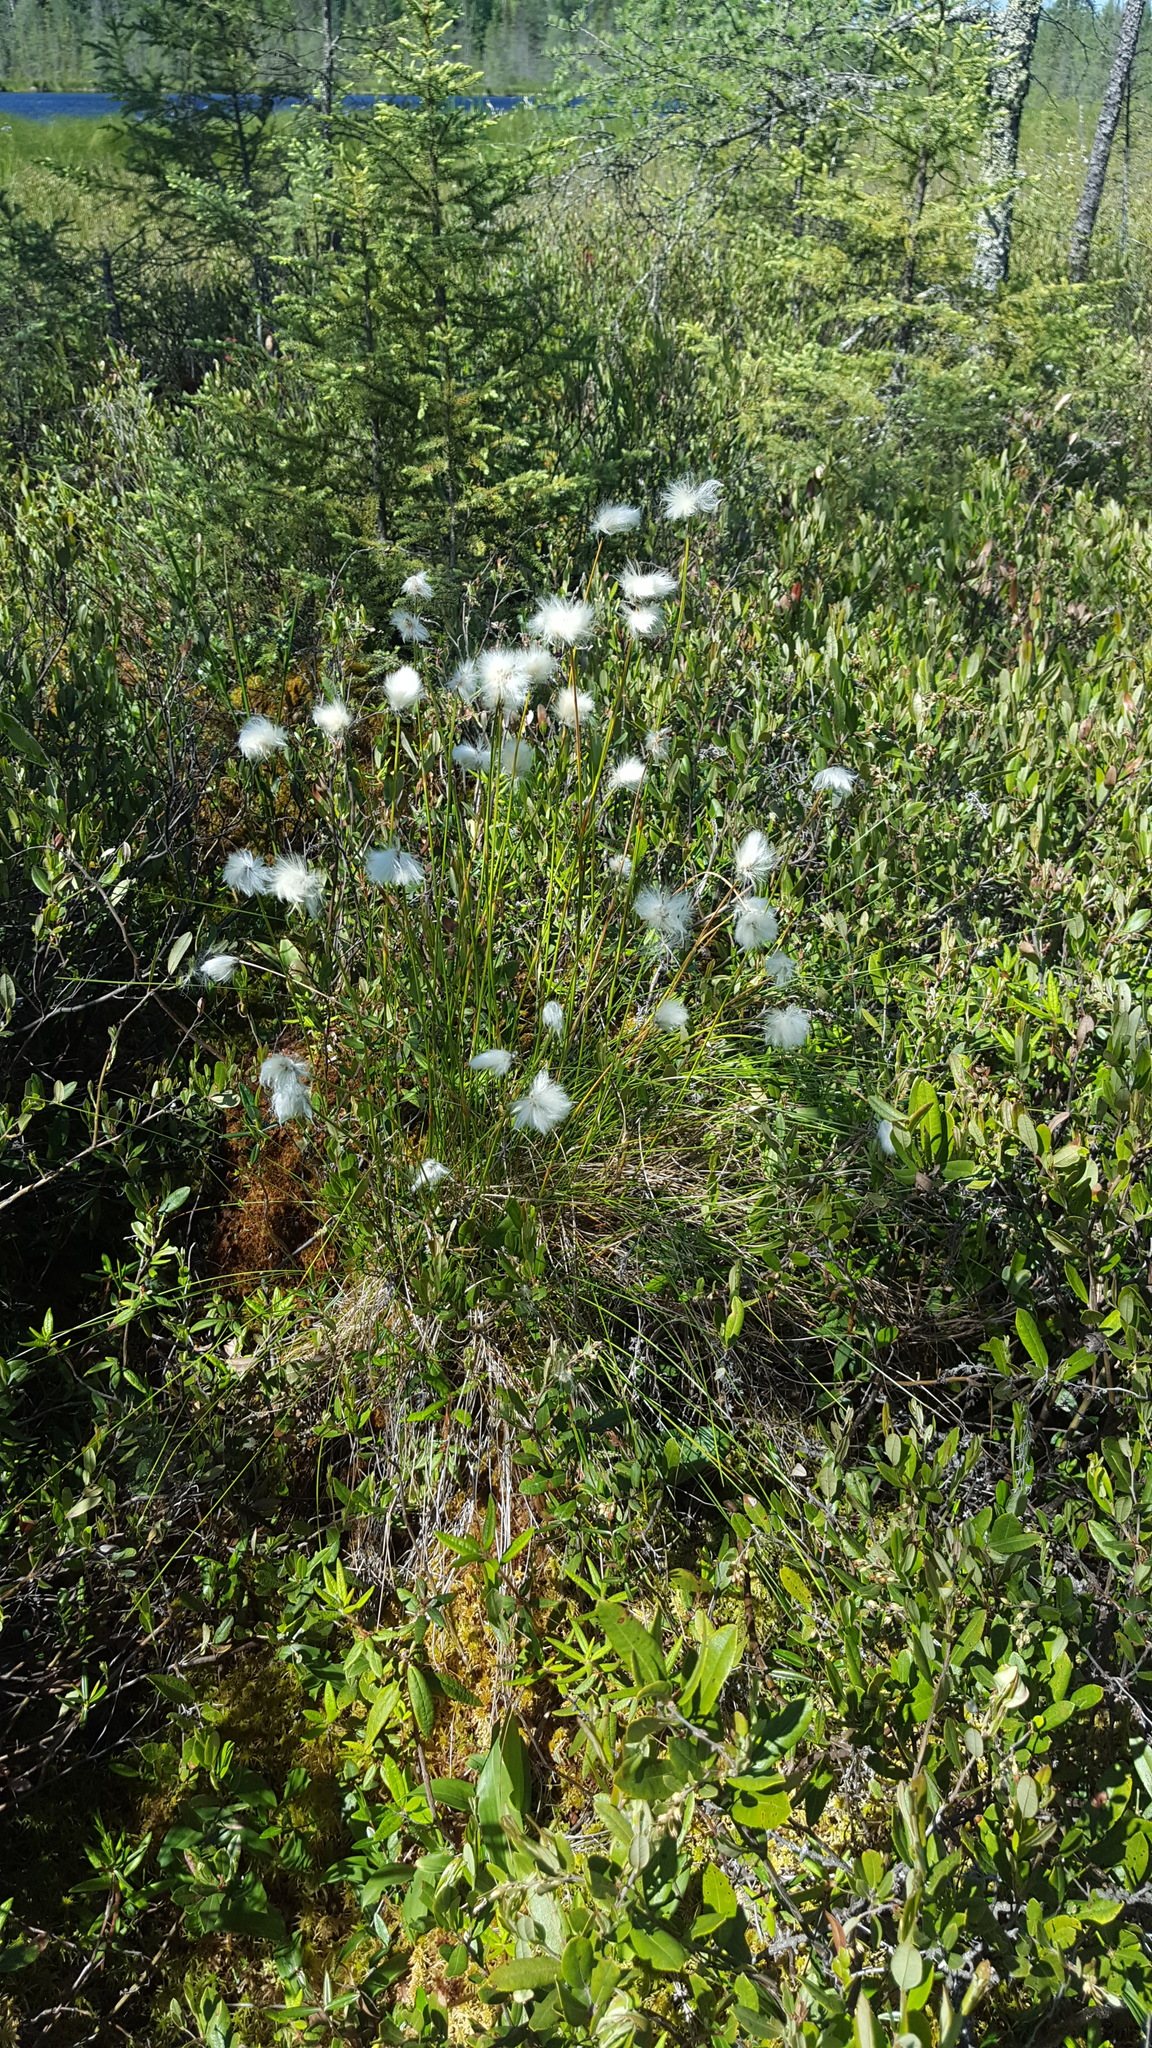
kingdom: Plantae
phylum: Tracheophyta
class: Liliopsida
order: Poales
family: Cyperaceae
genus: Eriophorum
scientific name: Eriophorum vaginatum
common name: Hare's-tail cottongrass
